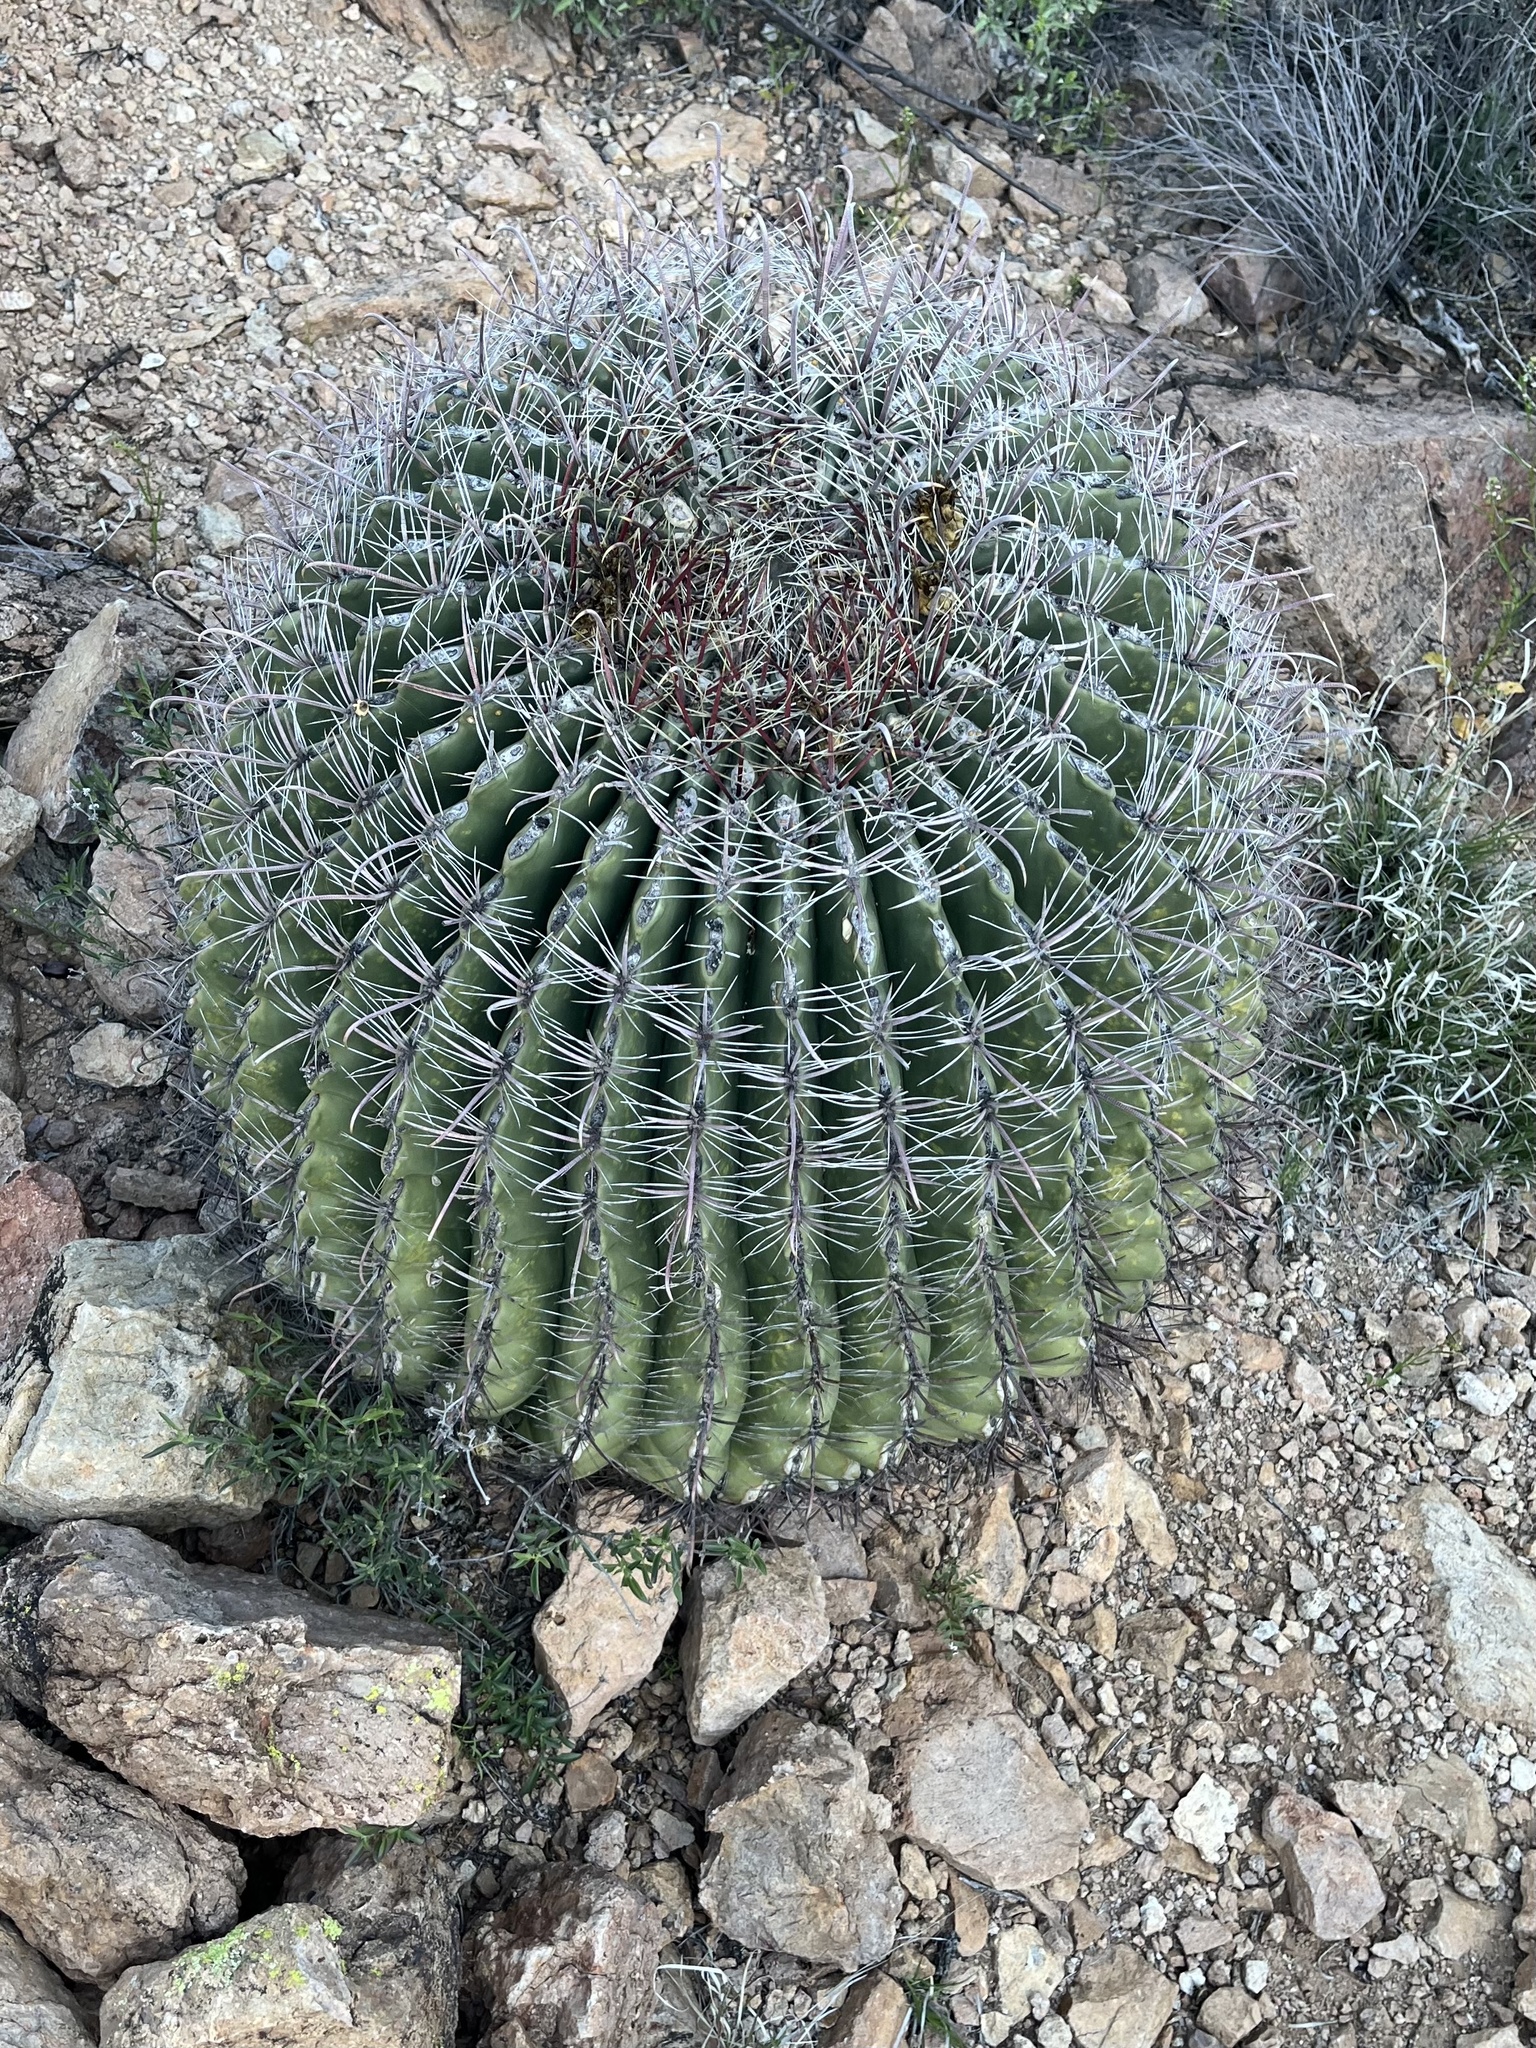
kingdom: Plantae
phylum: Tracheophyta
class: Magnoliopsida
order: Caryophyllales
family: Cactaceae
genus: Ferocactus
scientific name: Ferocactus wislizeni
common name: Candy barrel cactus
